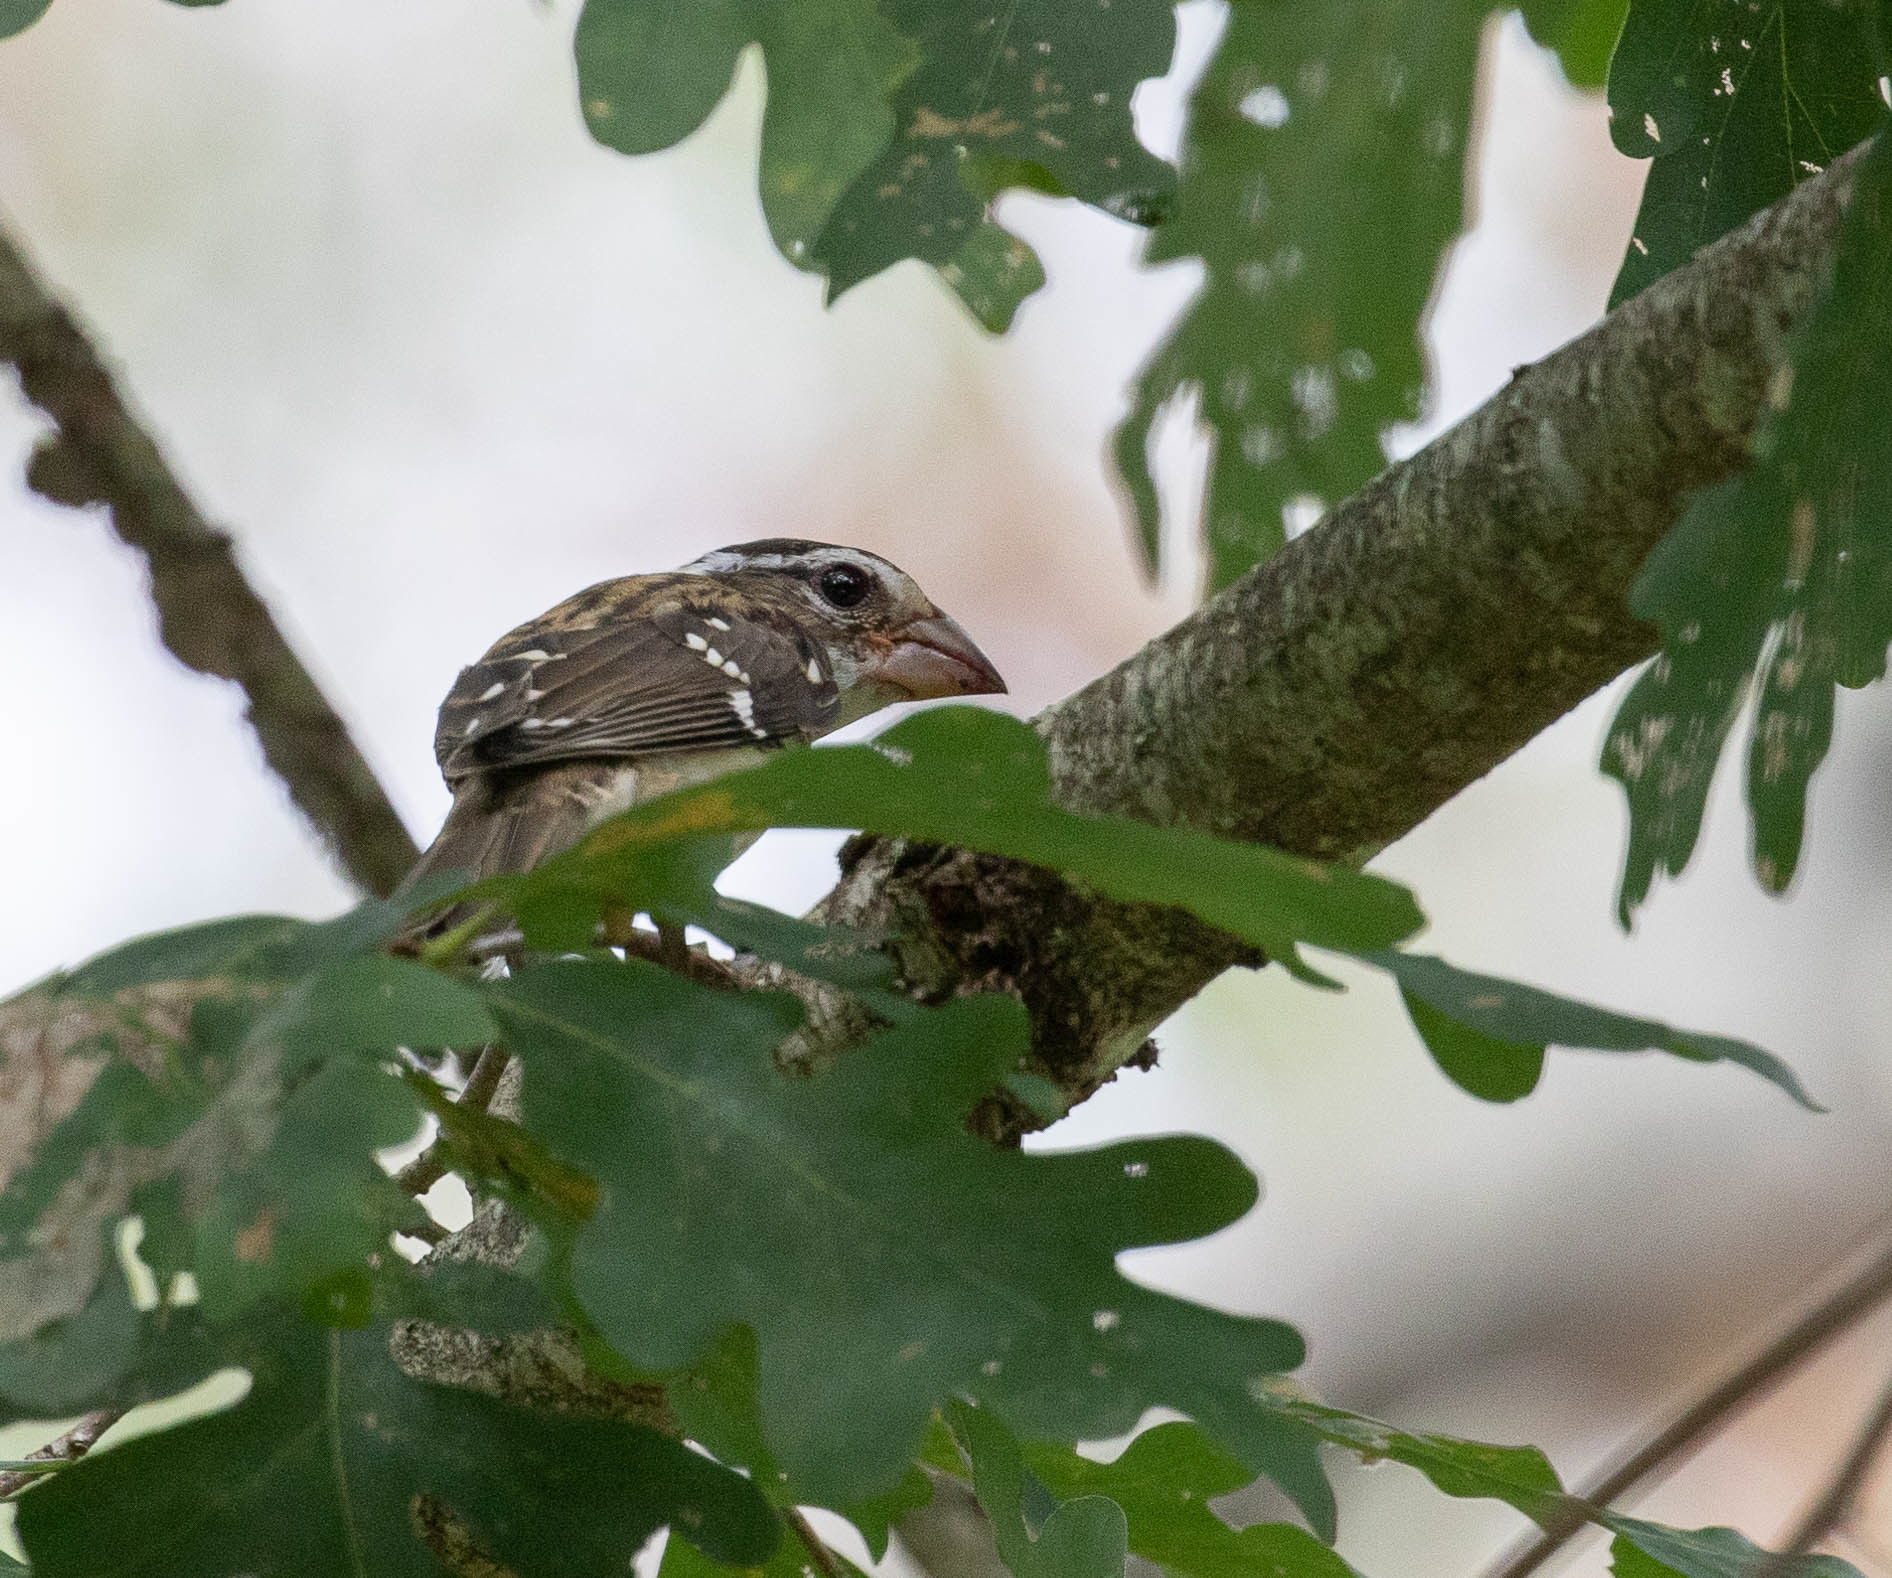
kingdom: Animalia
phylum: Chordata
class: Aves
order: Passeriformes
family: Cardinalidae
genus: Pheucticus
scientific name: Pheucticus ludovicianus
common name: Rose-breasted grosbeak
